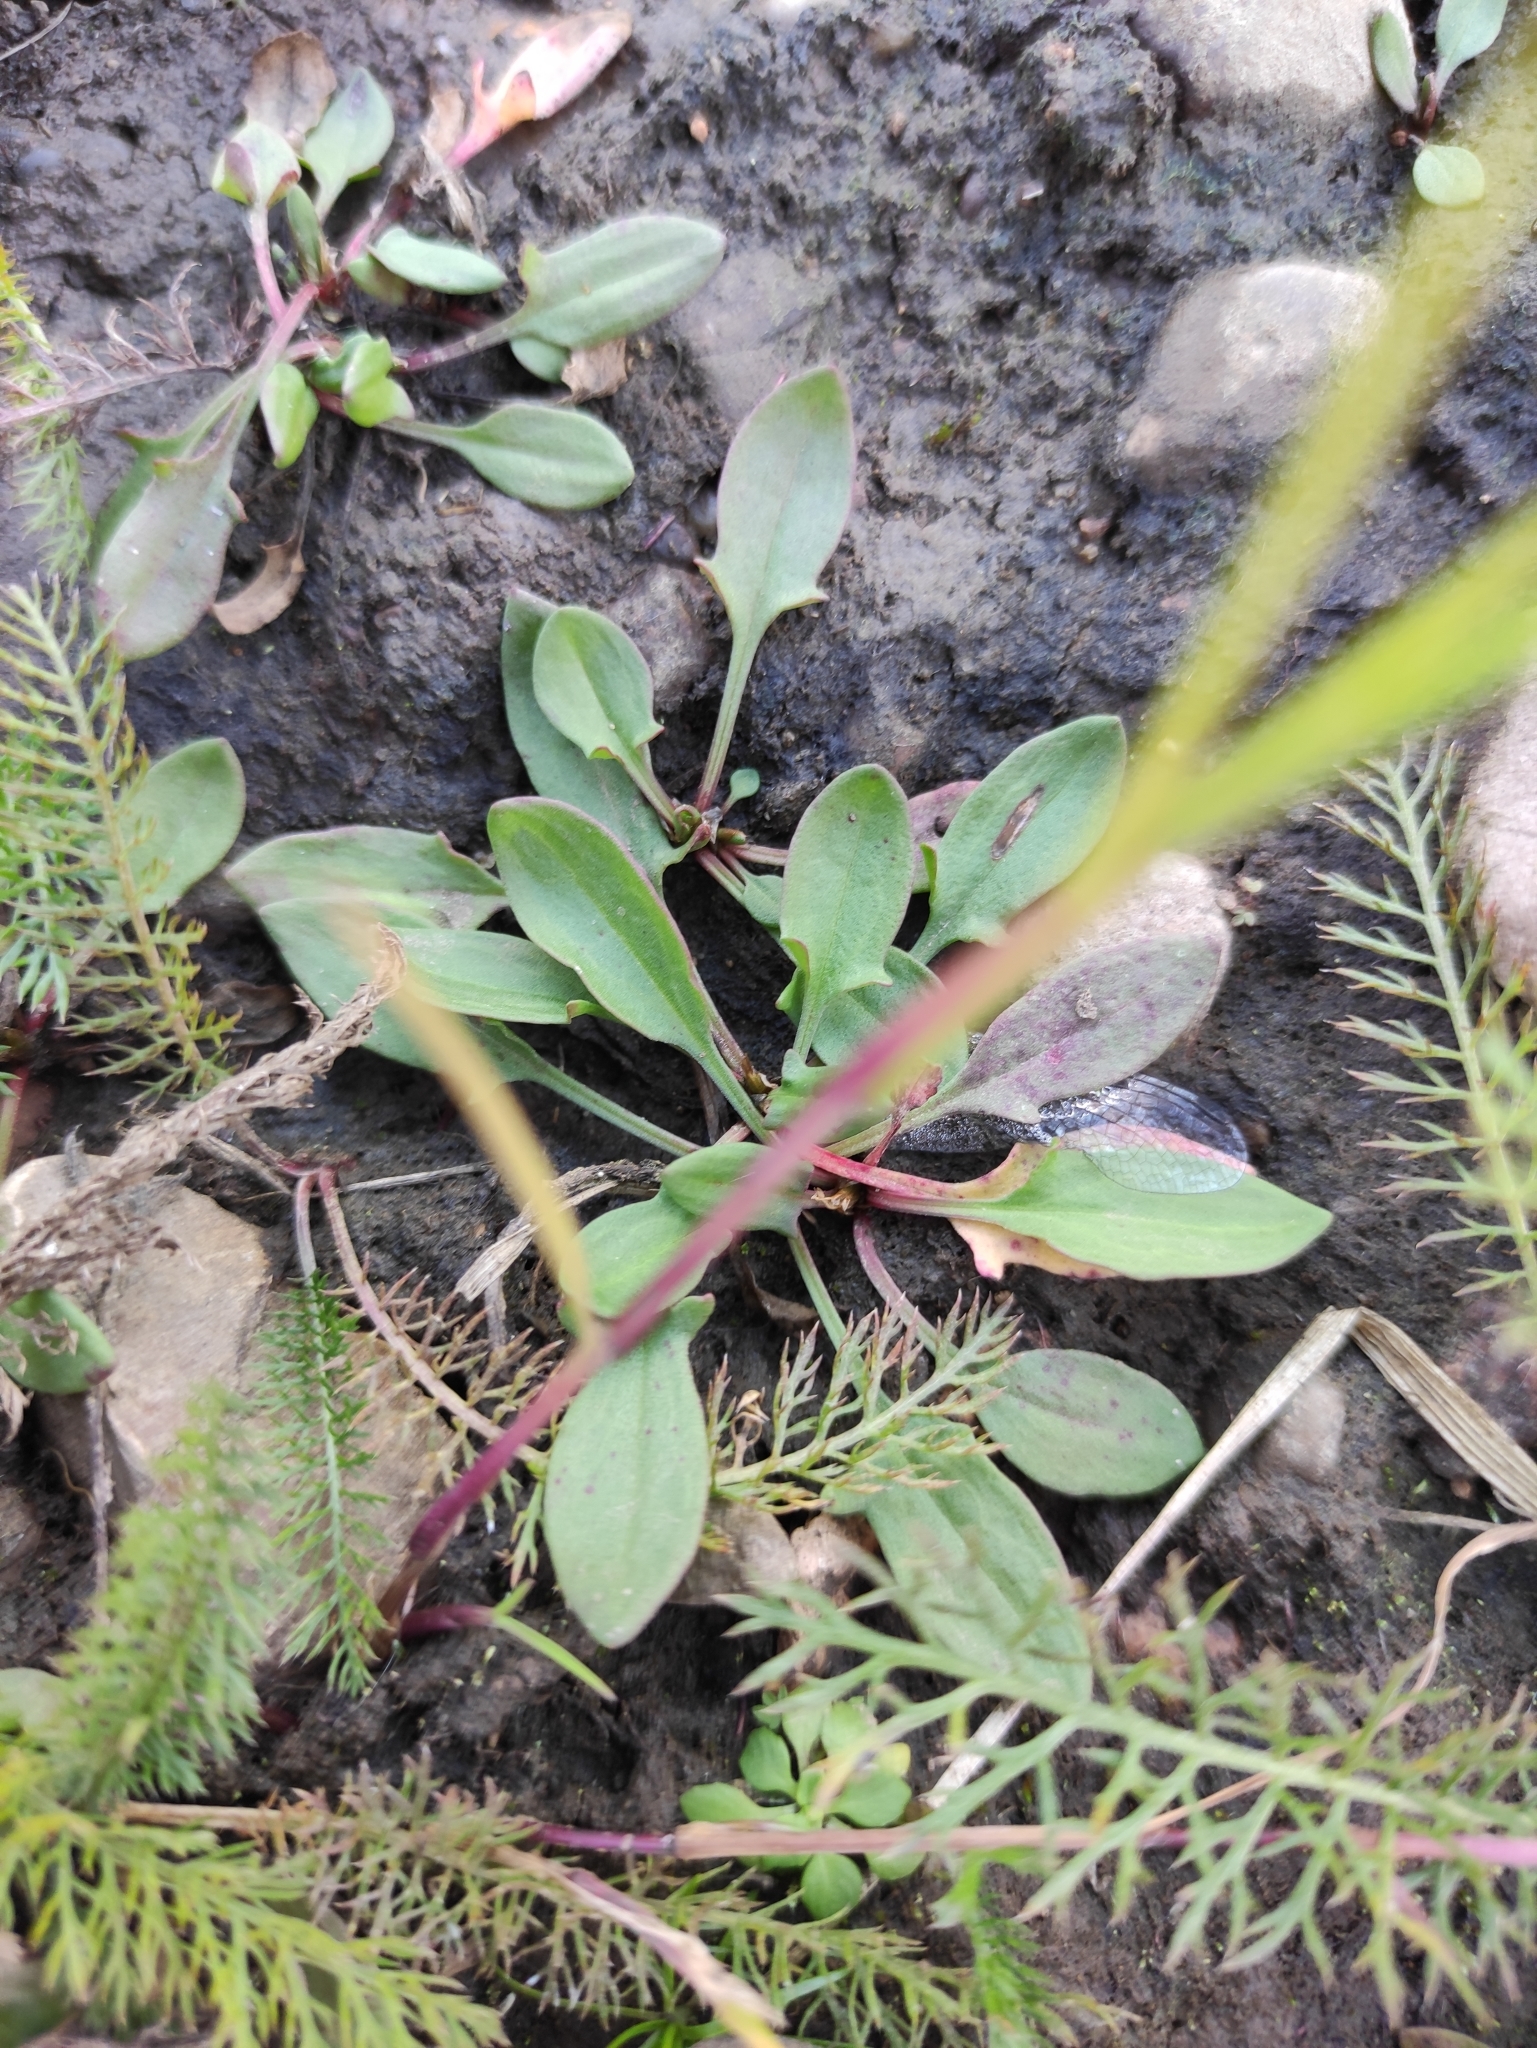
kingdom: Plantae
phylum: Tracheophyta
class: Magnoliopsida
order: Caryophyllales
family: Polygonaceae
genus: Rumex
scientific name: Rumex acetosella
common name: Common sheep sorrel
